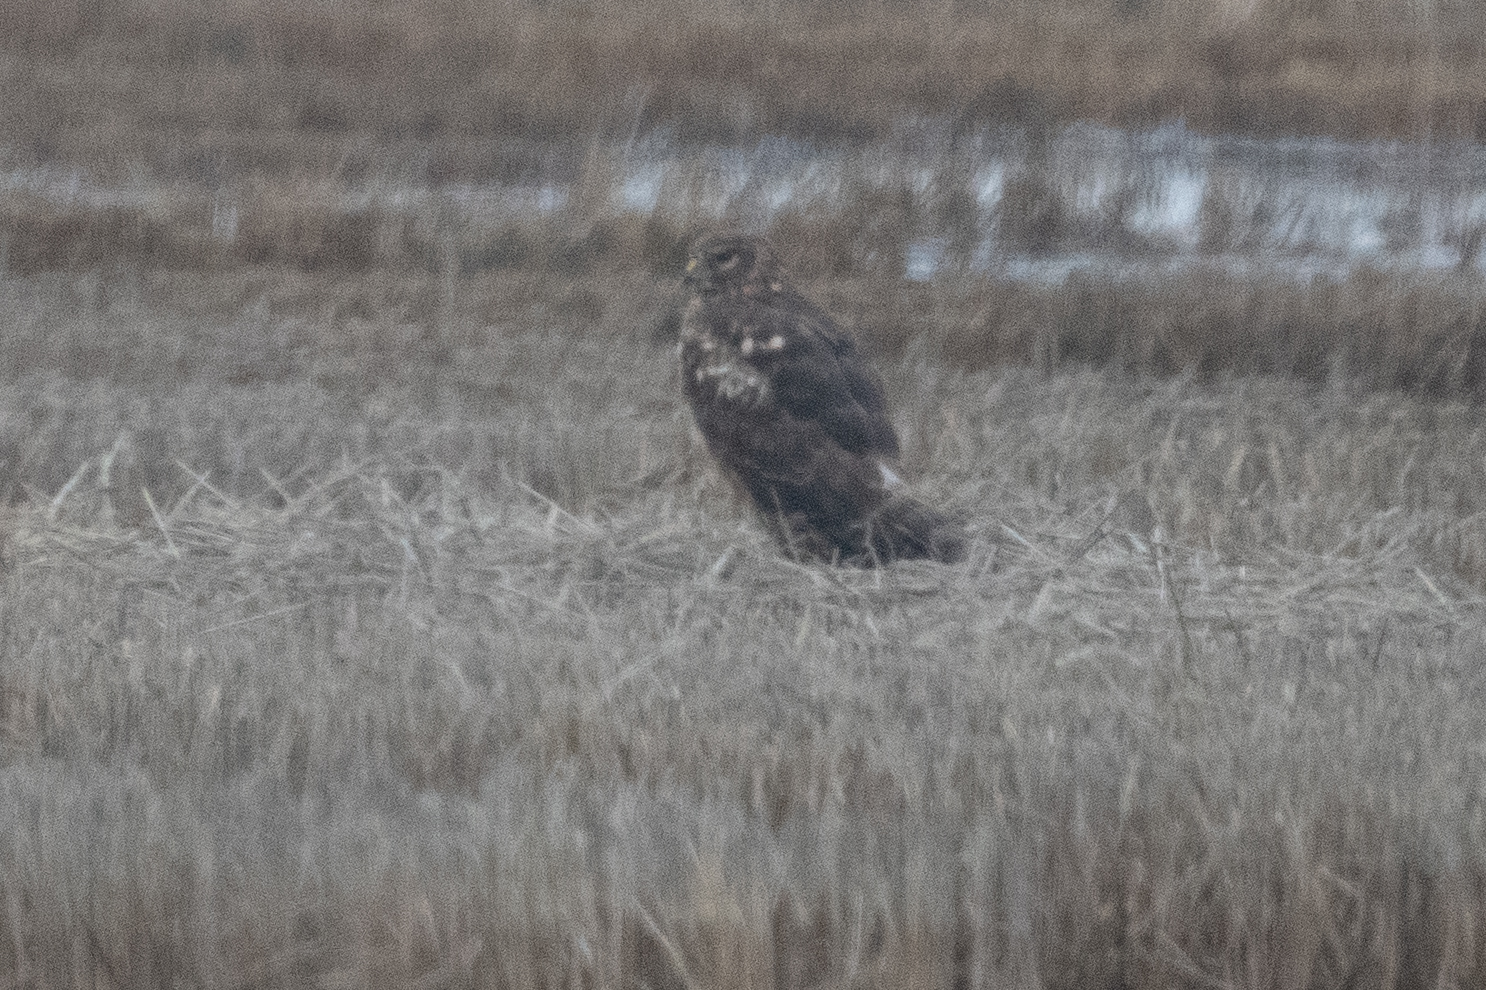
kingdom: Animalia
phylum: Chordata
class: Aves
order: Accipitriformes
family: Accipitridae
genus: Circus
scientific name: Circus cyaneus
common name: Hen harrier
